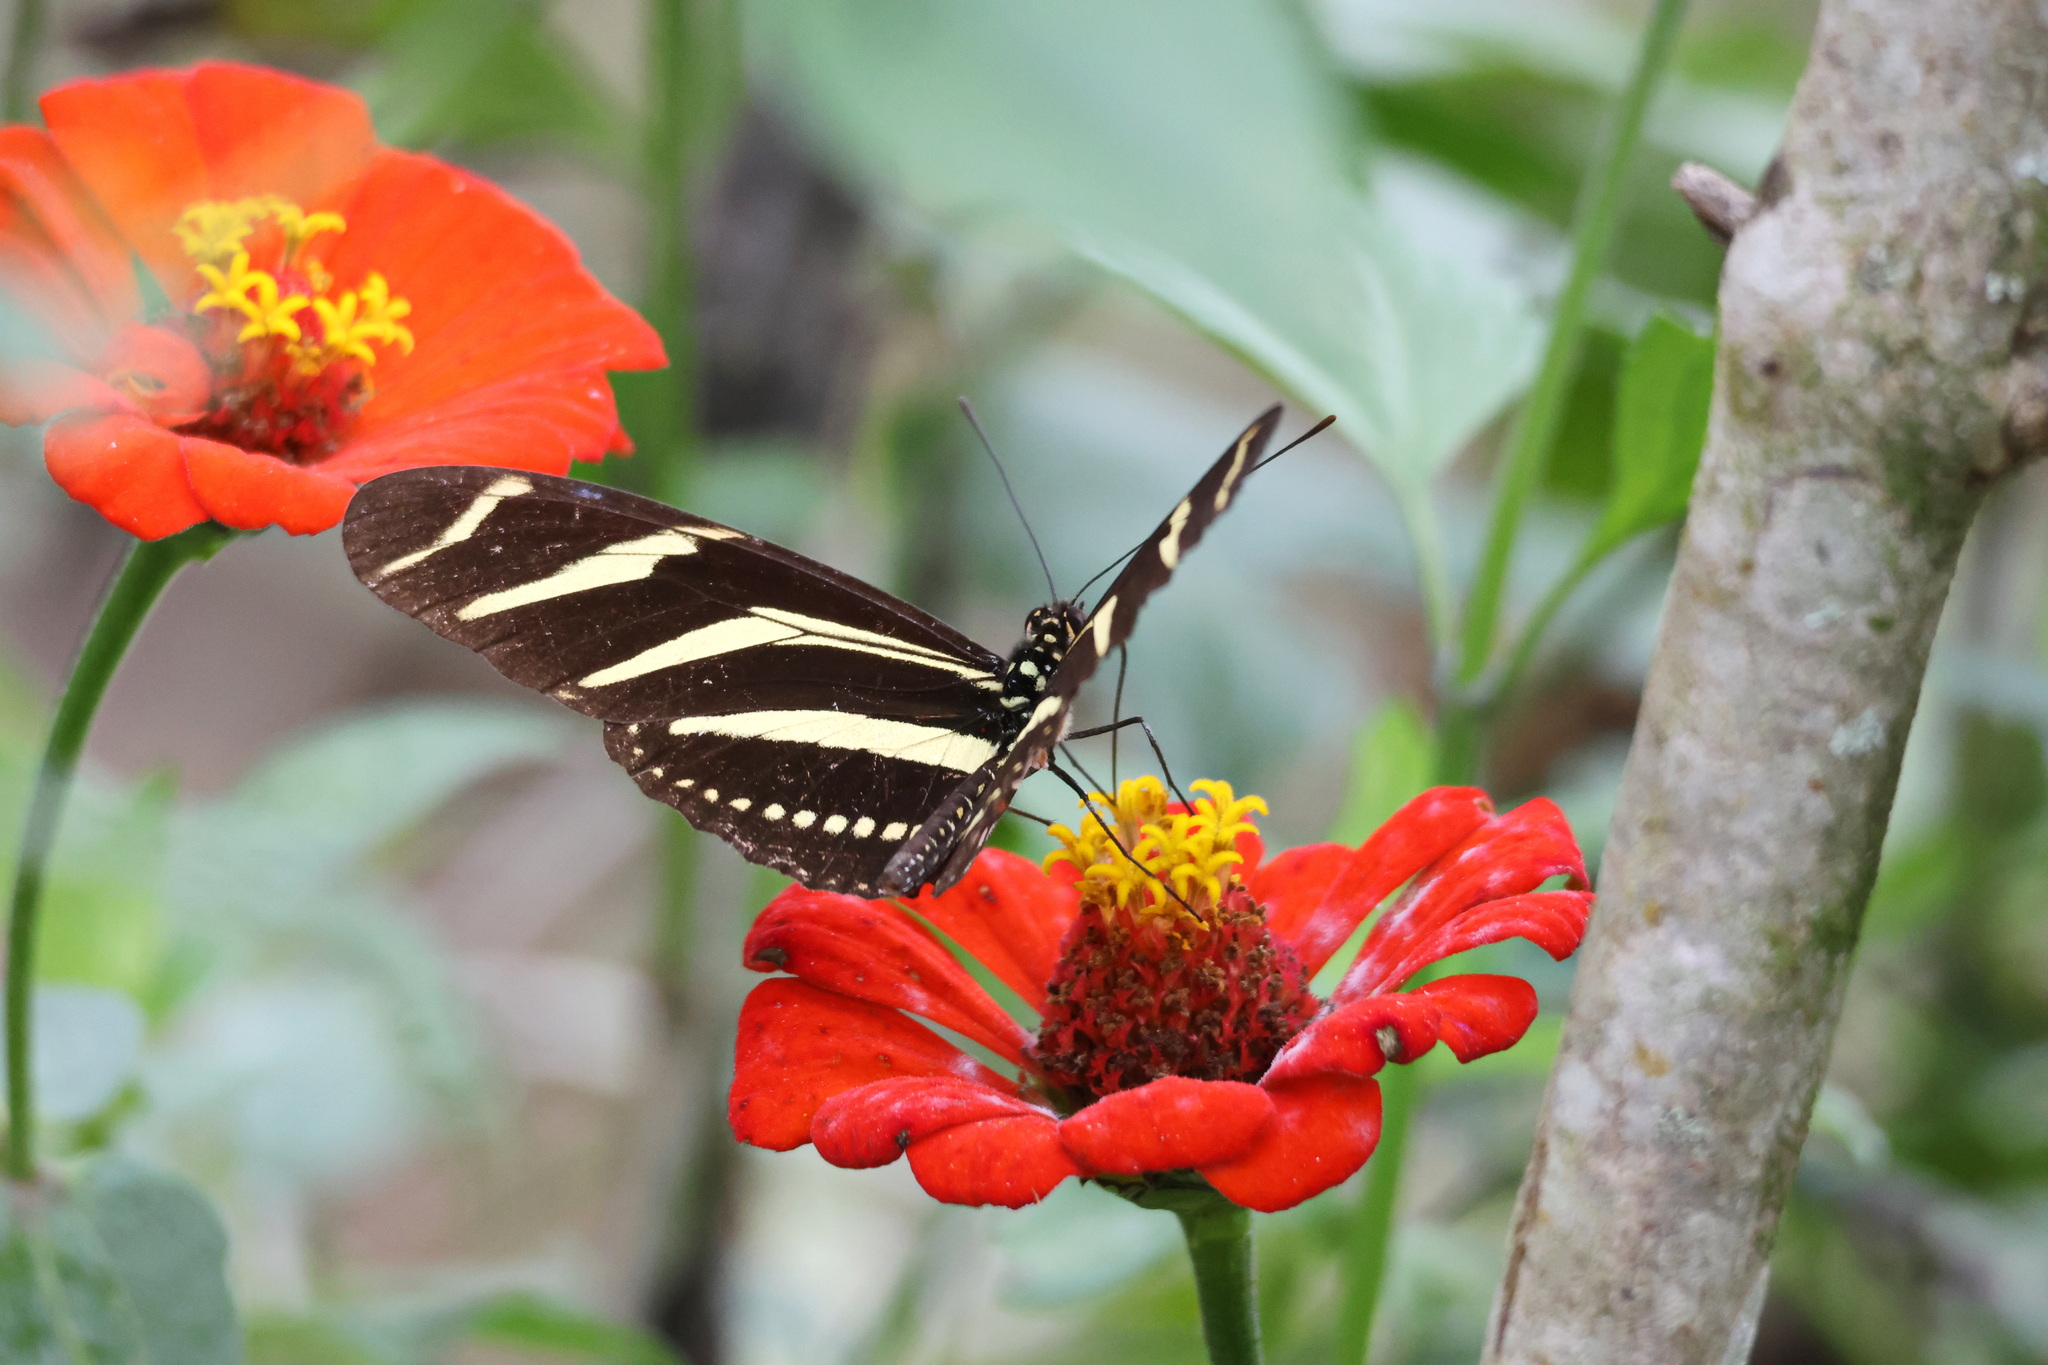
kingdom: Animalia
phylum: Arthropoda
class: Insecta
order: Lepidoptera
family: Nymphalidae
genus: Heliconius
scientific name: Heliconius charithonia
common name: Zebra long wing
